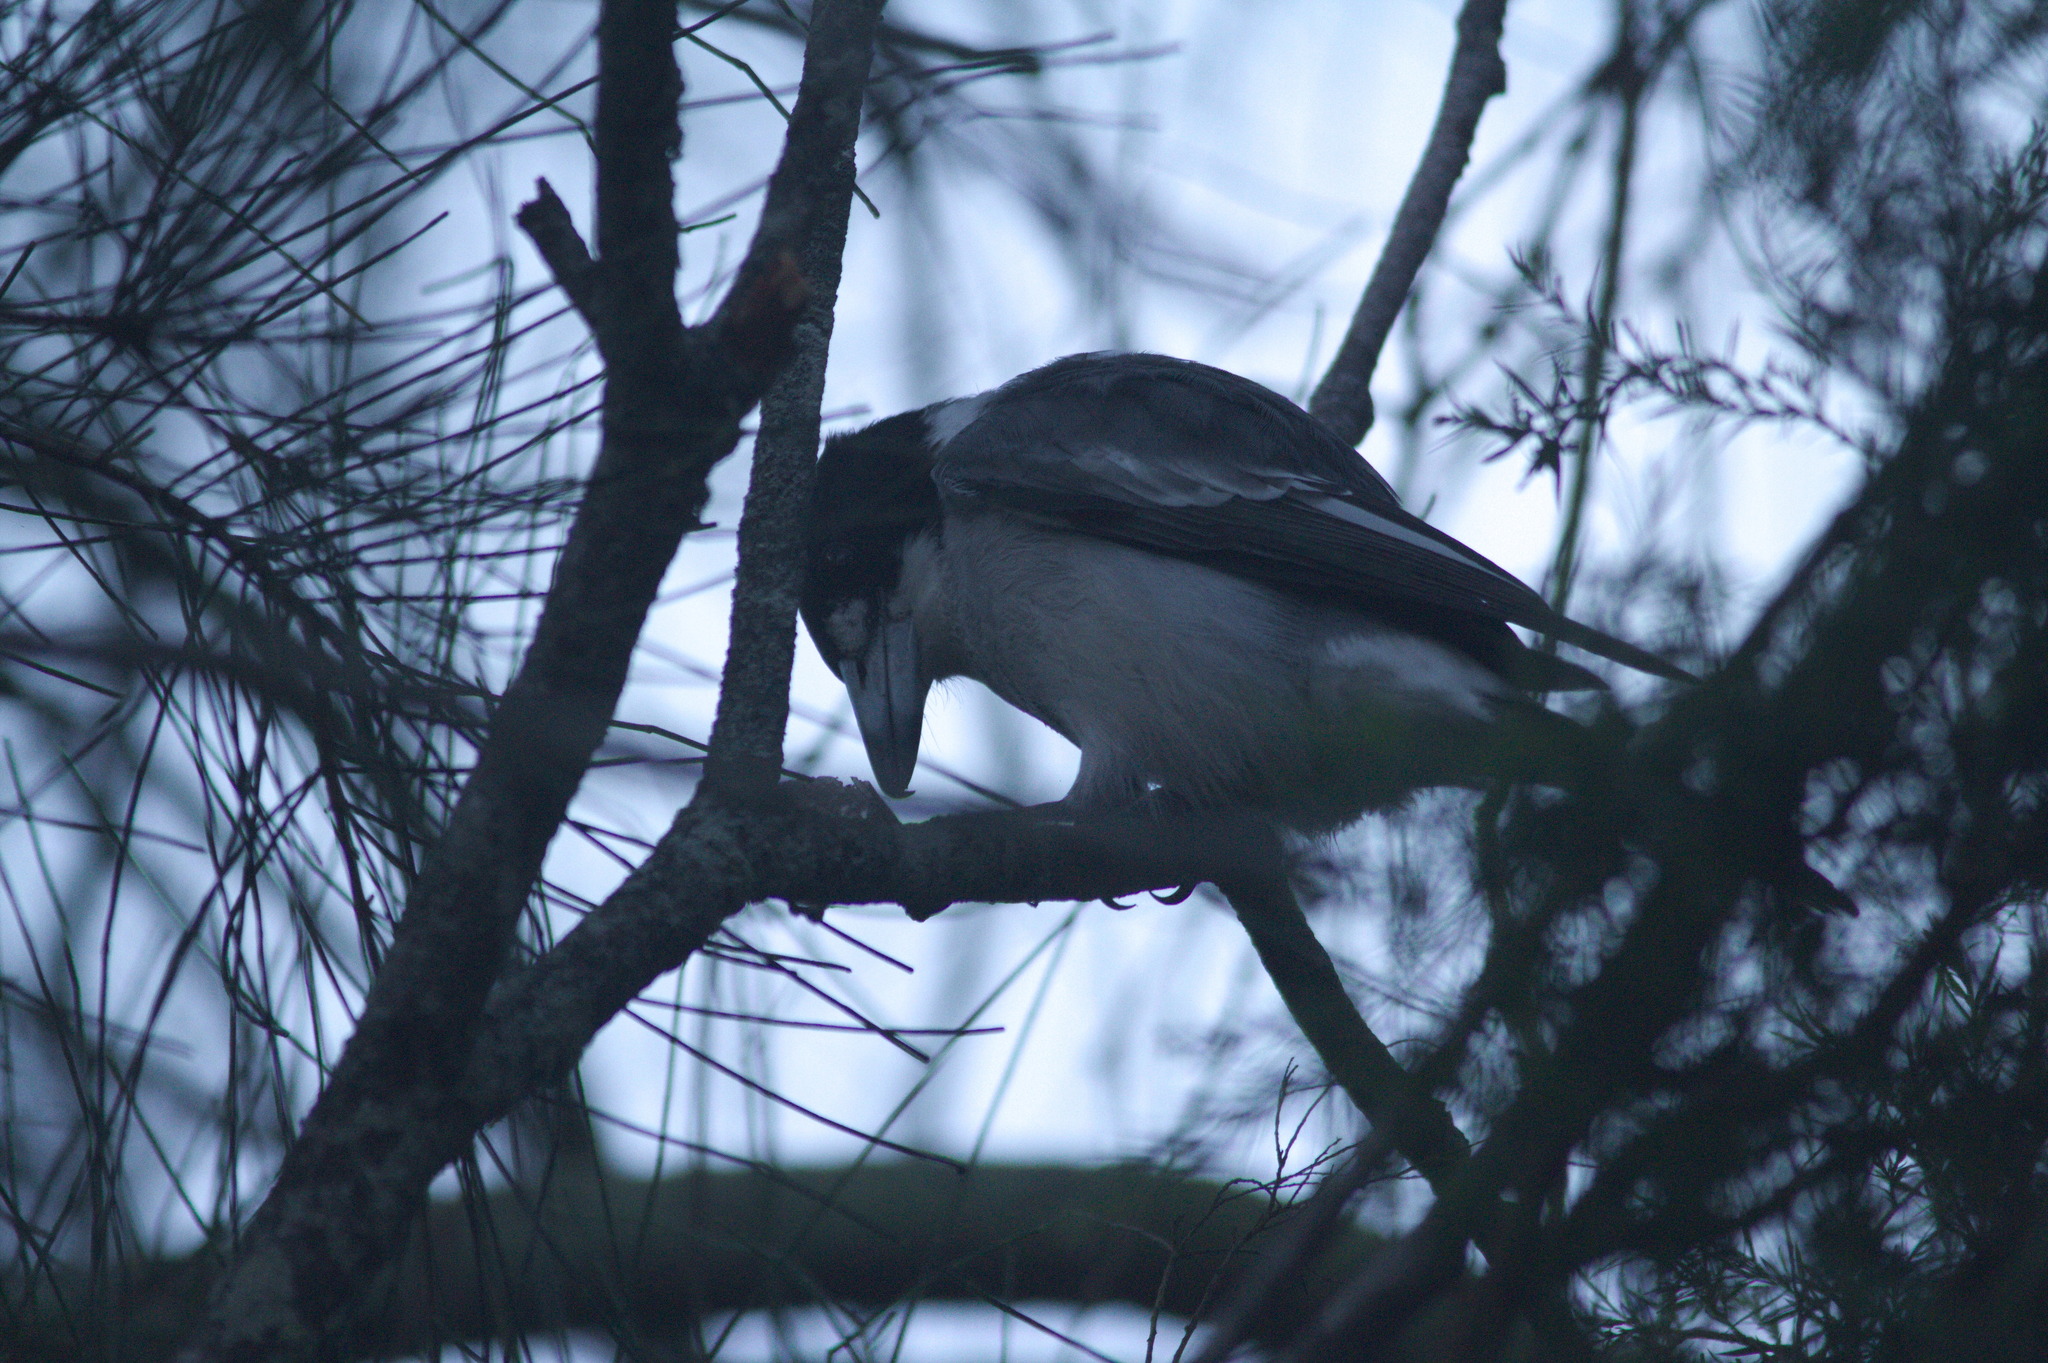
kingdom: Animalia
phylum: Chordata
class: Aves
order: Passeriformes
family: Cracticidae
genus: Cracticus
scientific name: Cracticus torquatus
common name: Grey butcherbird
